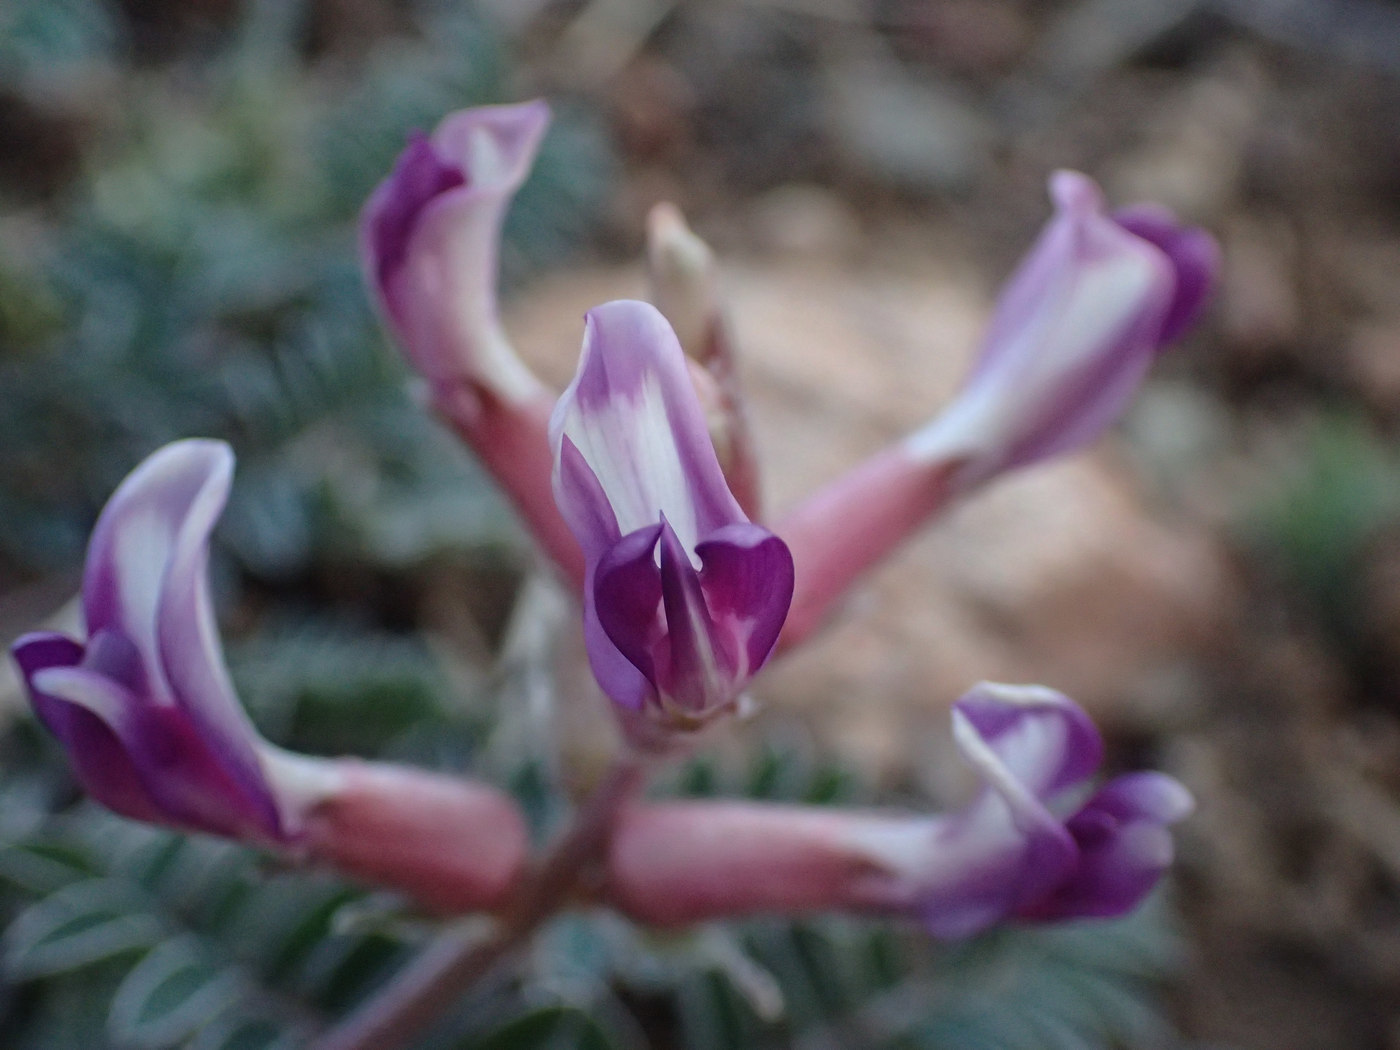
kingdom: Plantae
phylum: Tracheophyta
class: Magnoliopsida
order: Fabales
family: Fabaceae
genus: Astragalus
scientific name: Astragalus tephrodes
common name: Ashen milk-vetch
